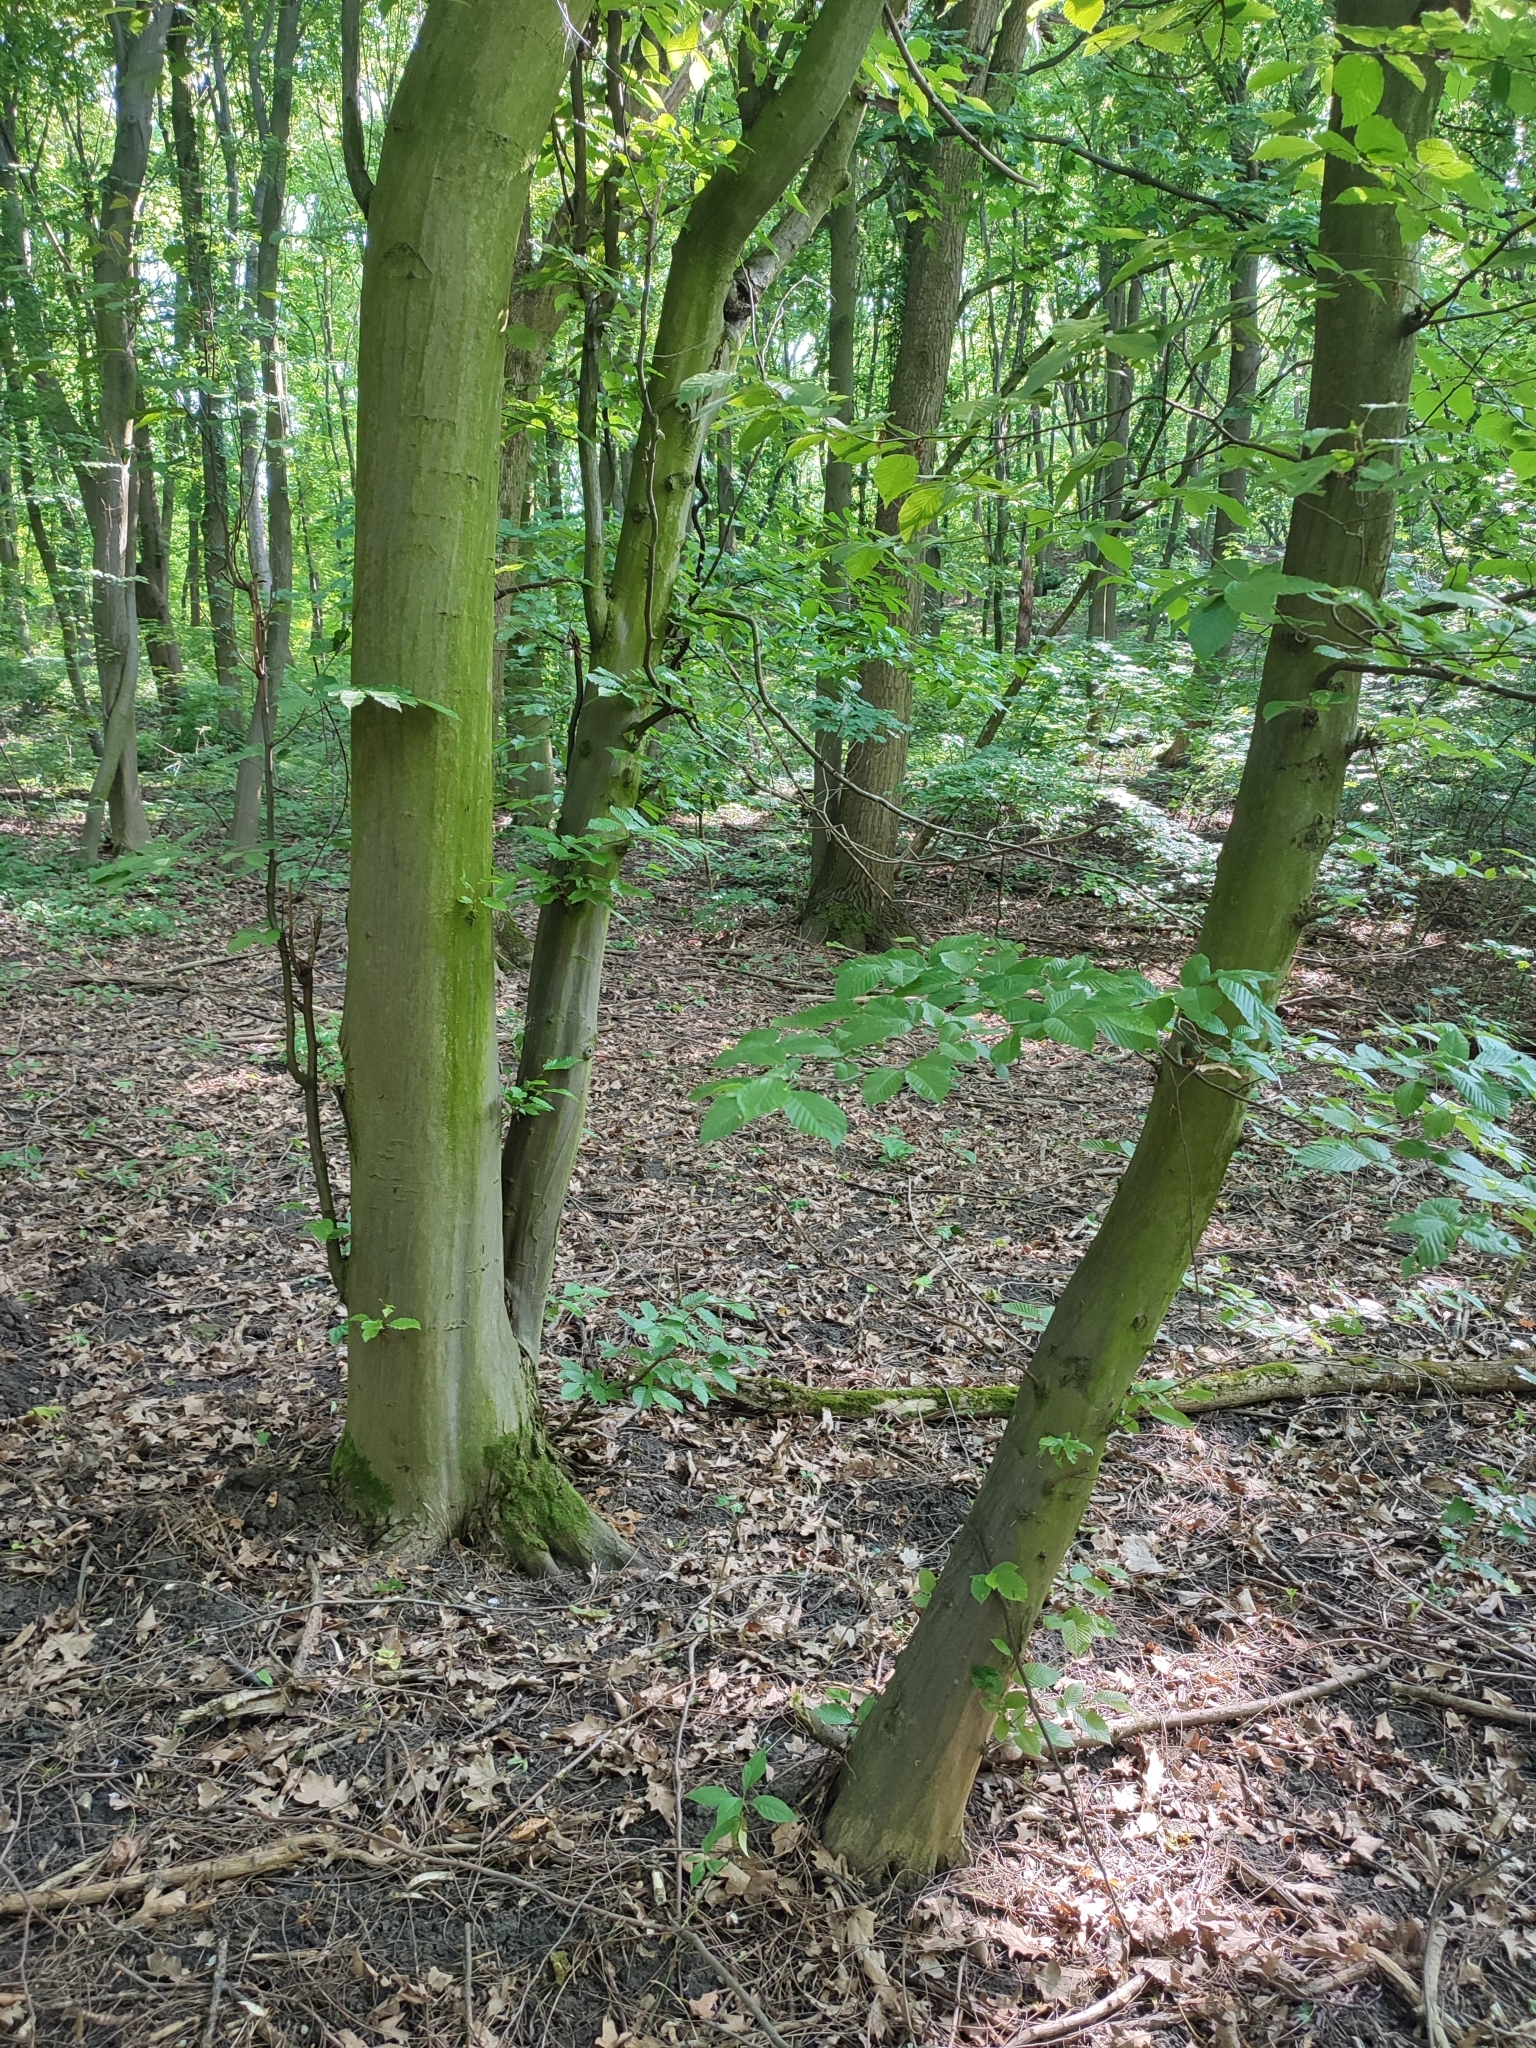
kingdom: Plantae
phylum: Tracheophyta
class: Magnoliopsida
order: Fagales
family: Betulaceae
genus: Carpinus
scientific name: Carpinus betulus
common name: Hornbeam
